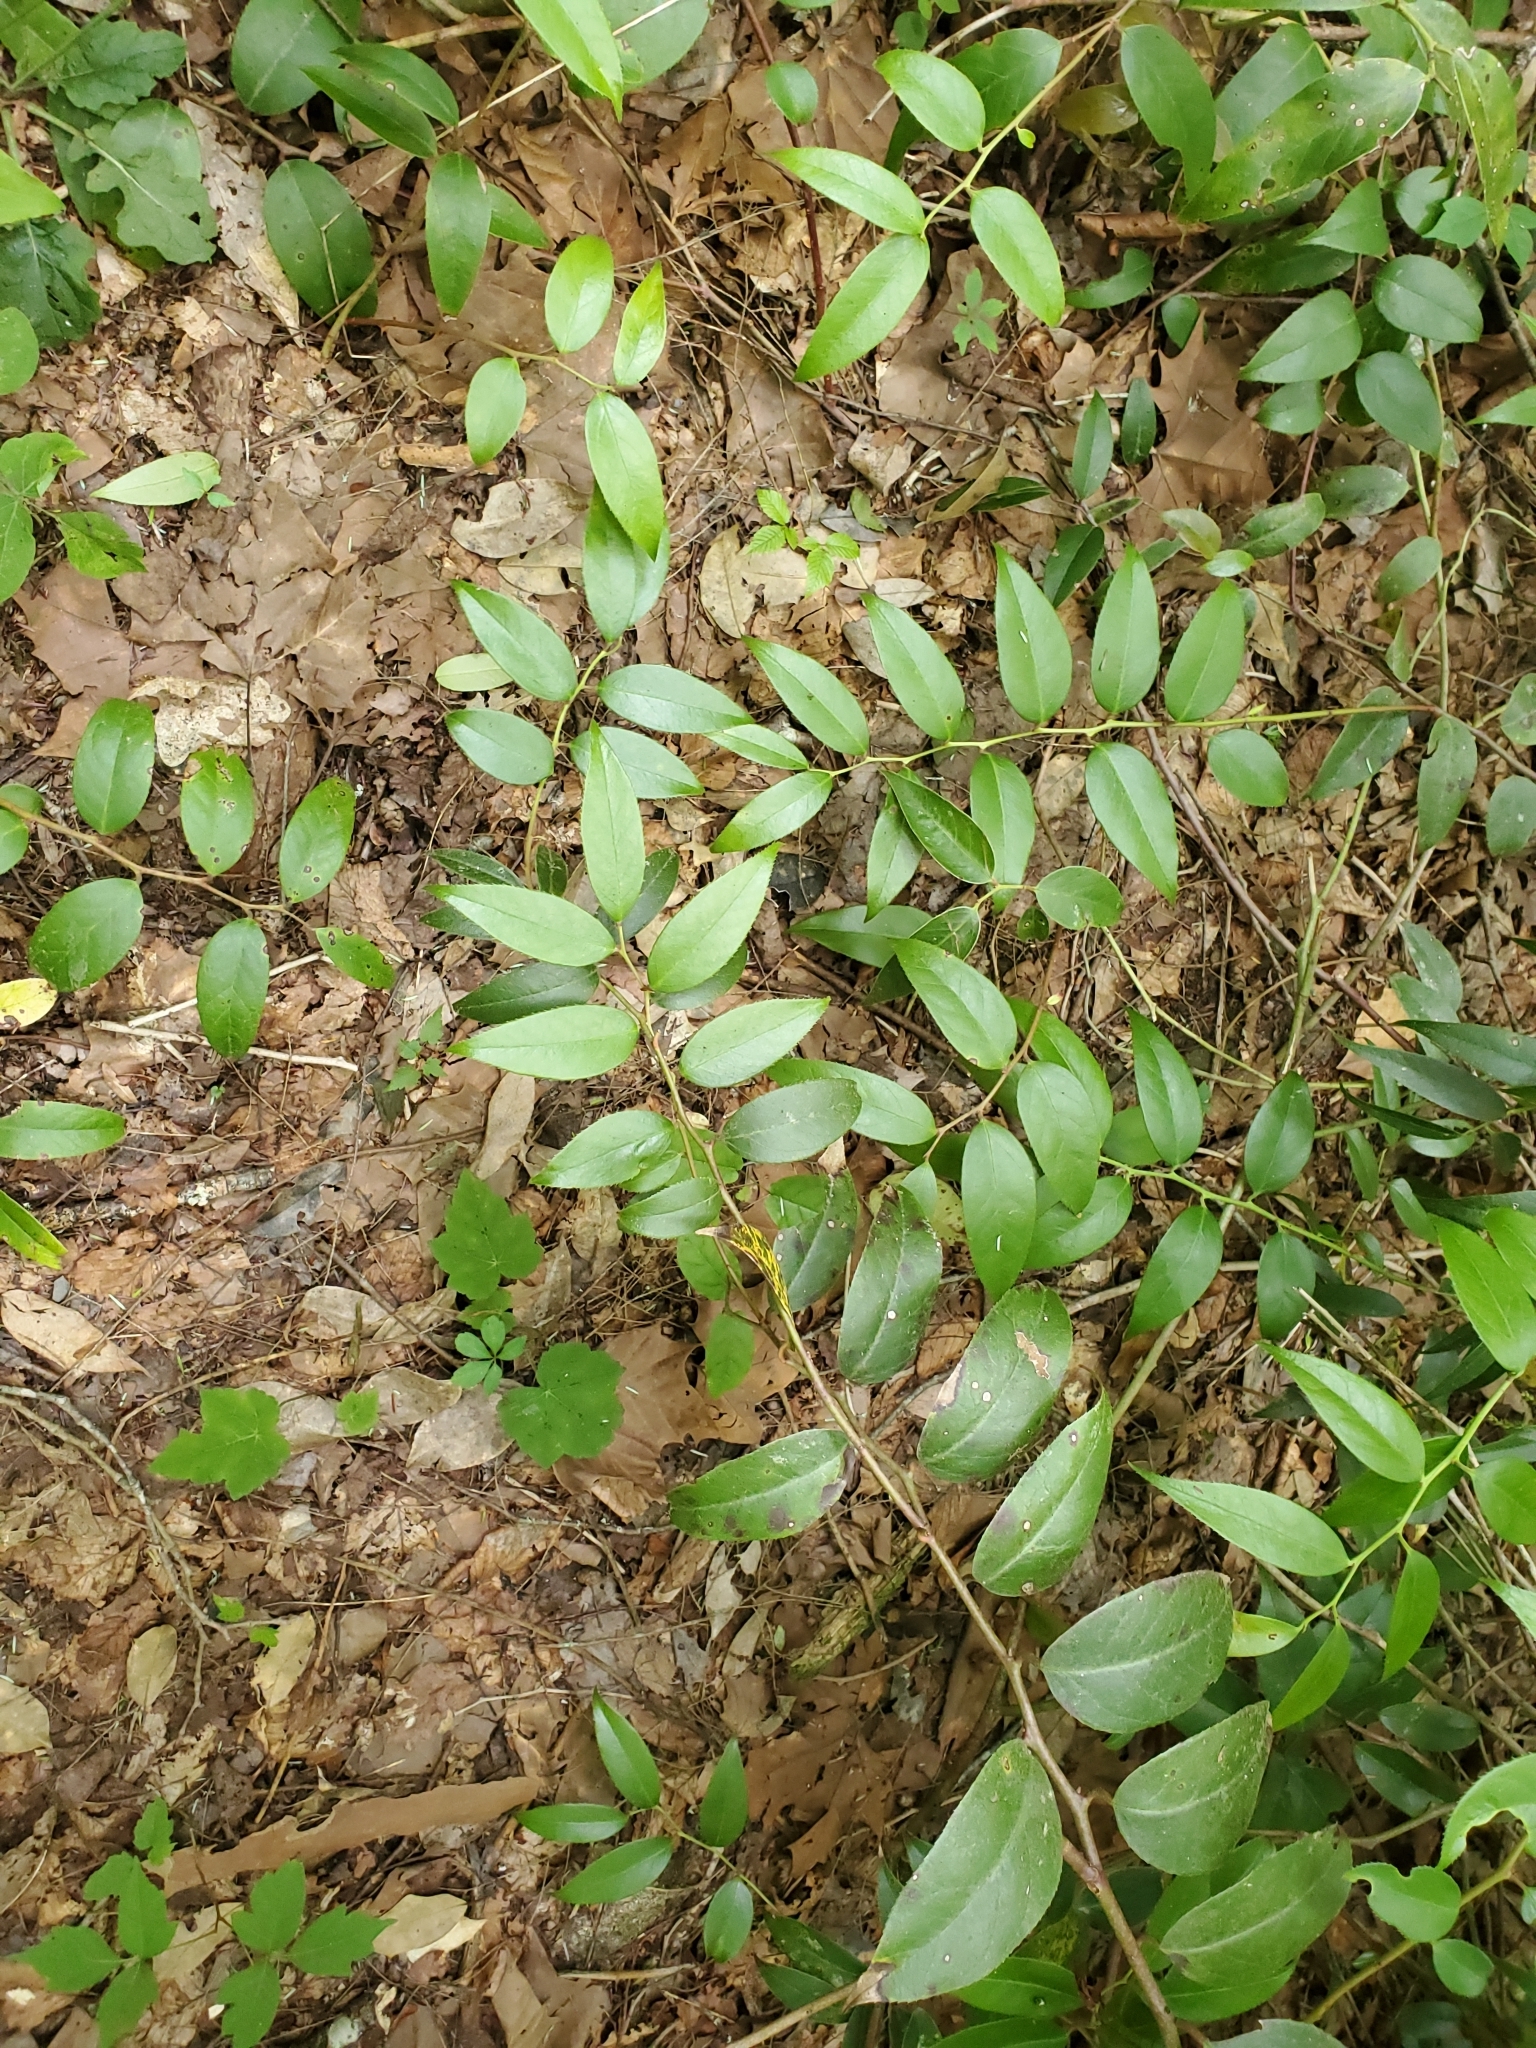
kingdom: Plantae
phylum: Tracheophyta
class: Magnoliopsida
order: Ericales
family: Ericaceae
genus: Leucothoe
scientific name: Leucothoe fontanesiana
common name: Fetterbush
